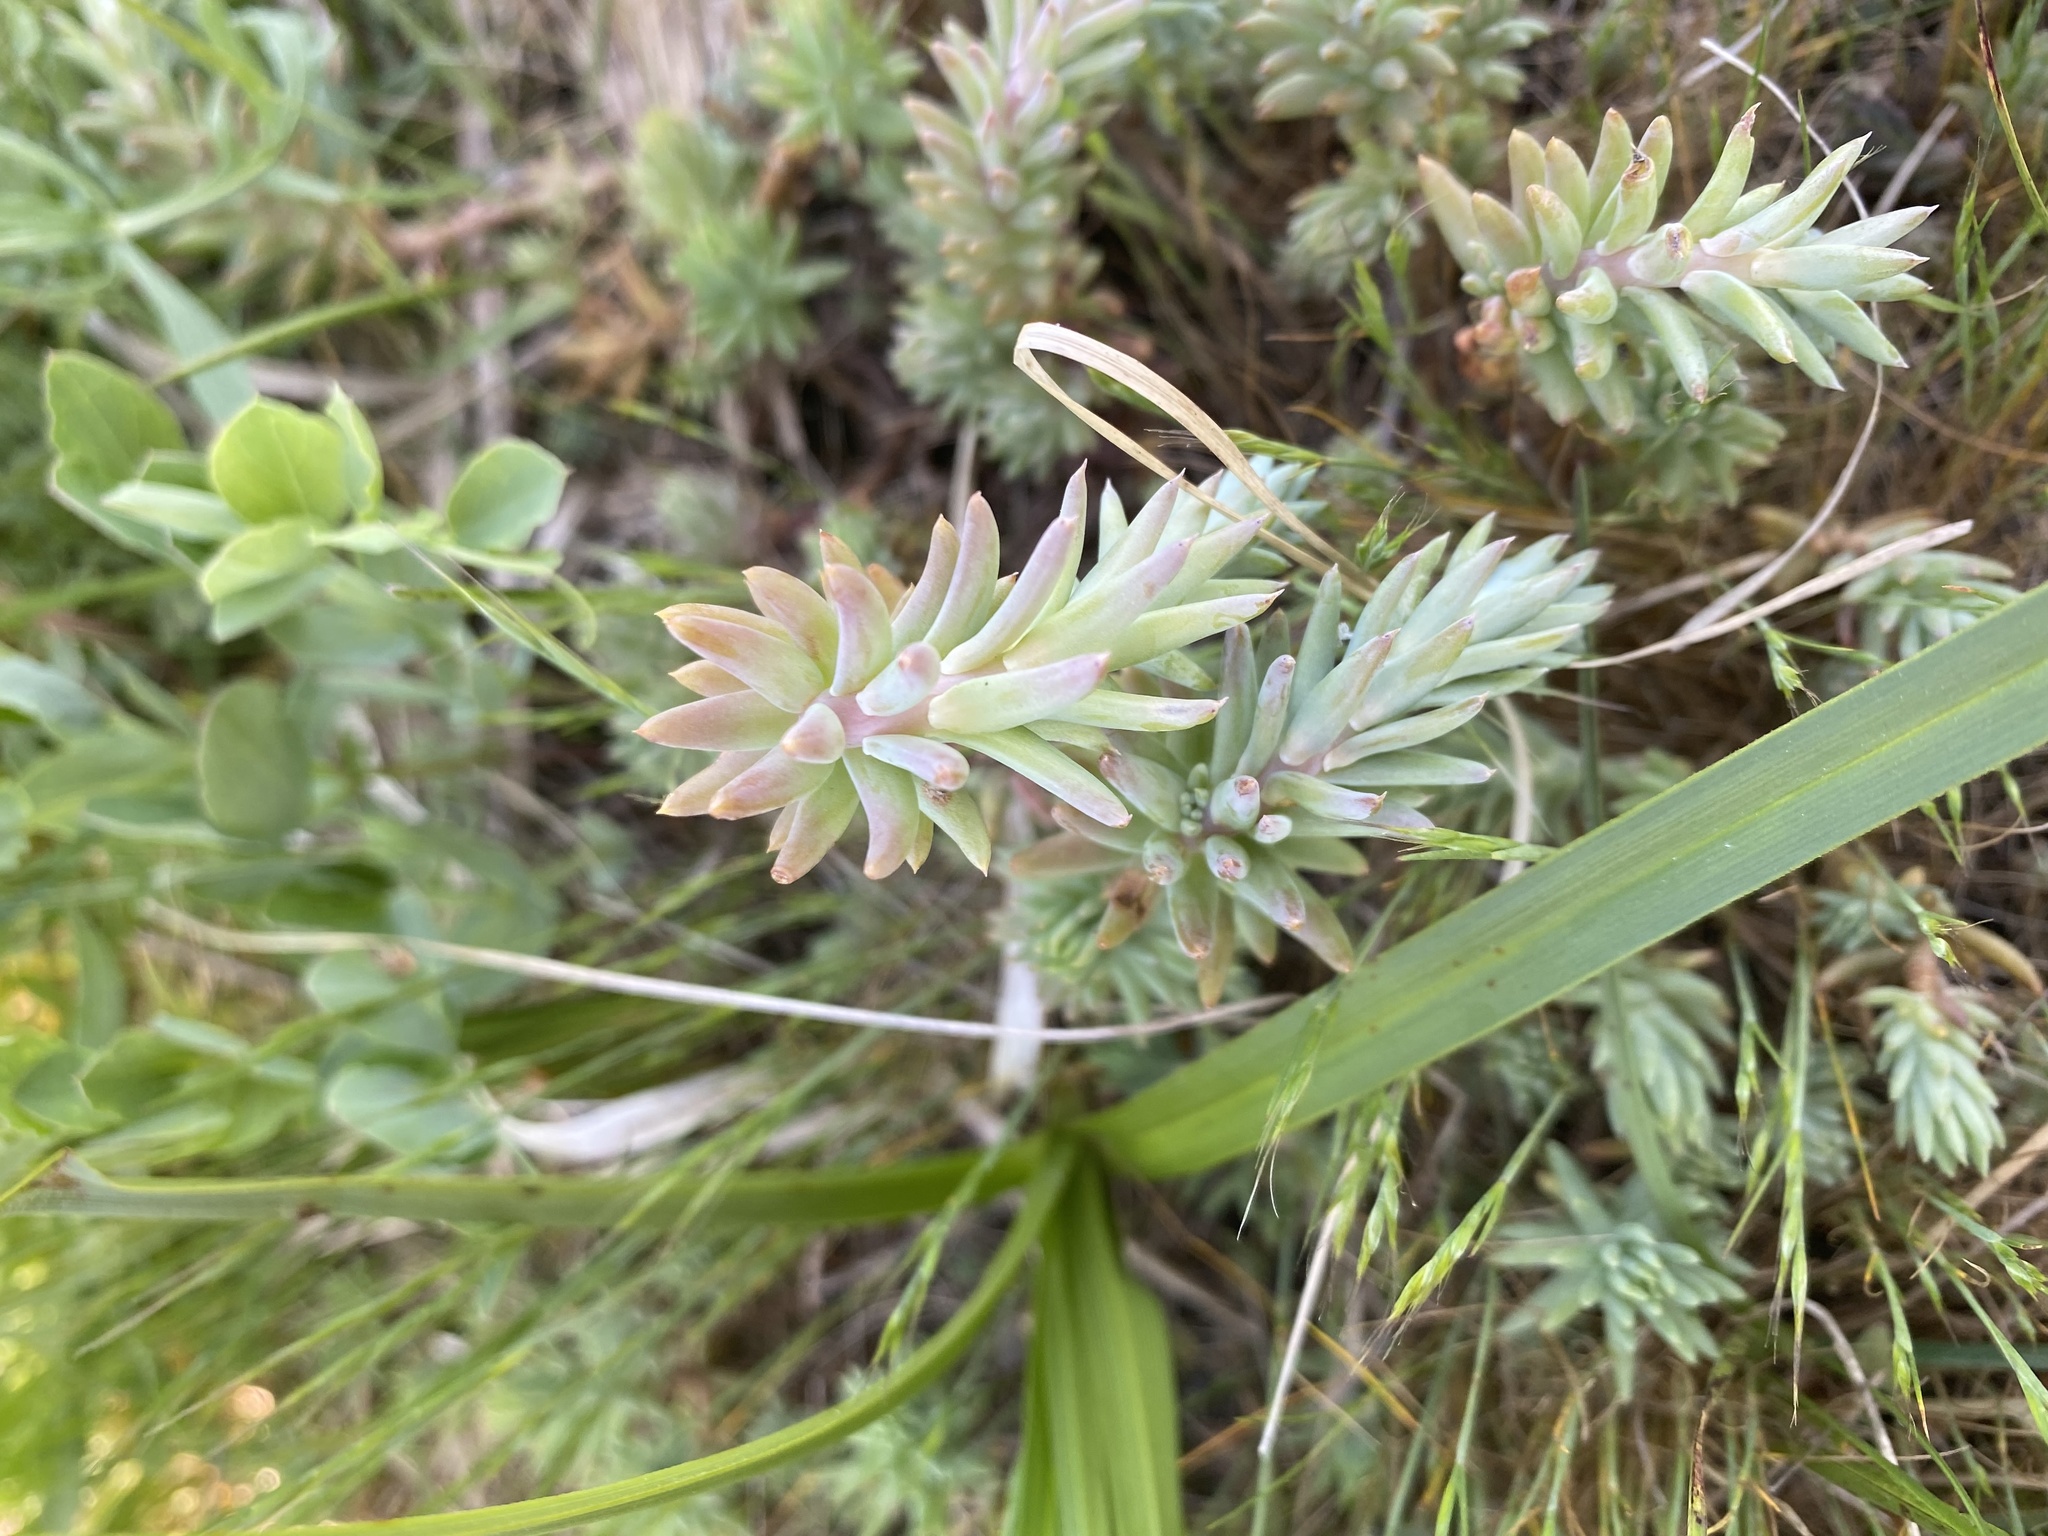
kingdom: Plantae
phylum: Tracheophyta
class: Magnoliopsida
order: Saxifragales
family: Crassulaceae
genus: Petrosedum
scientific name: Petrosedum rupestre
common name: Jenny's stonecrop
